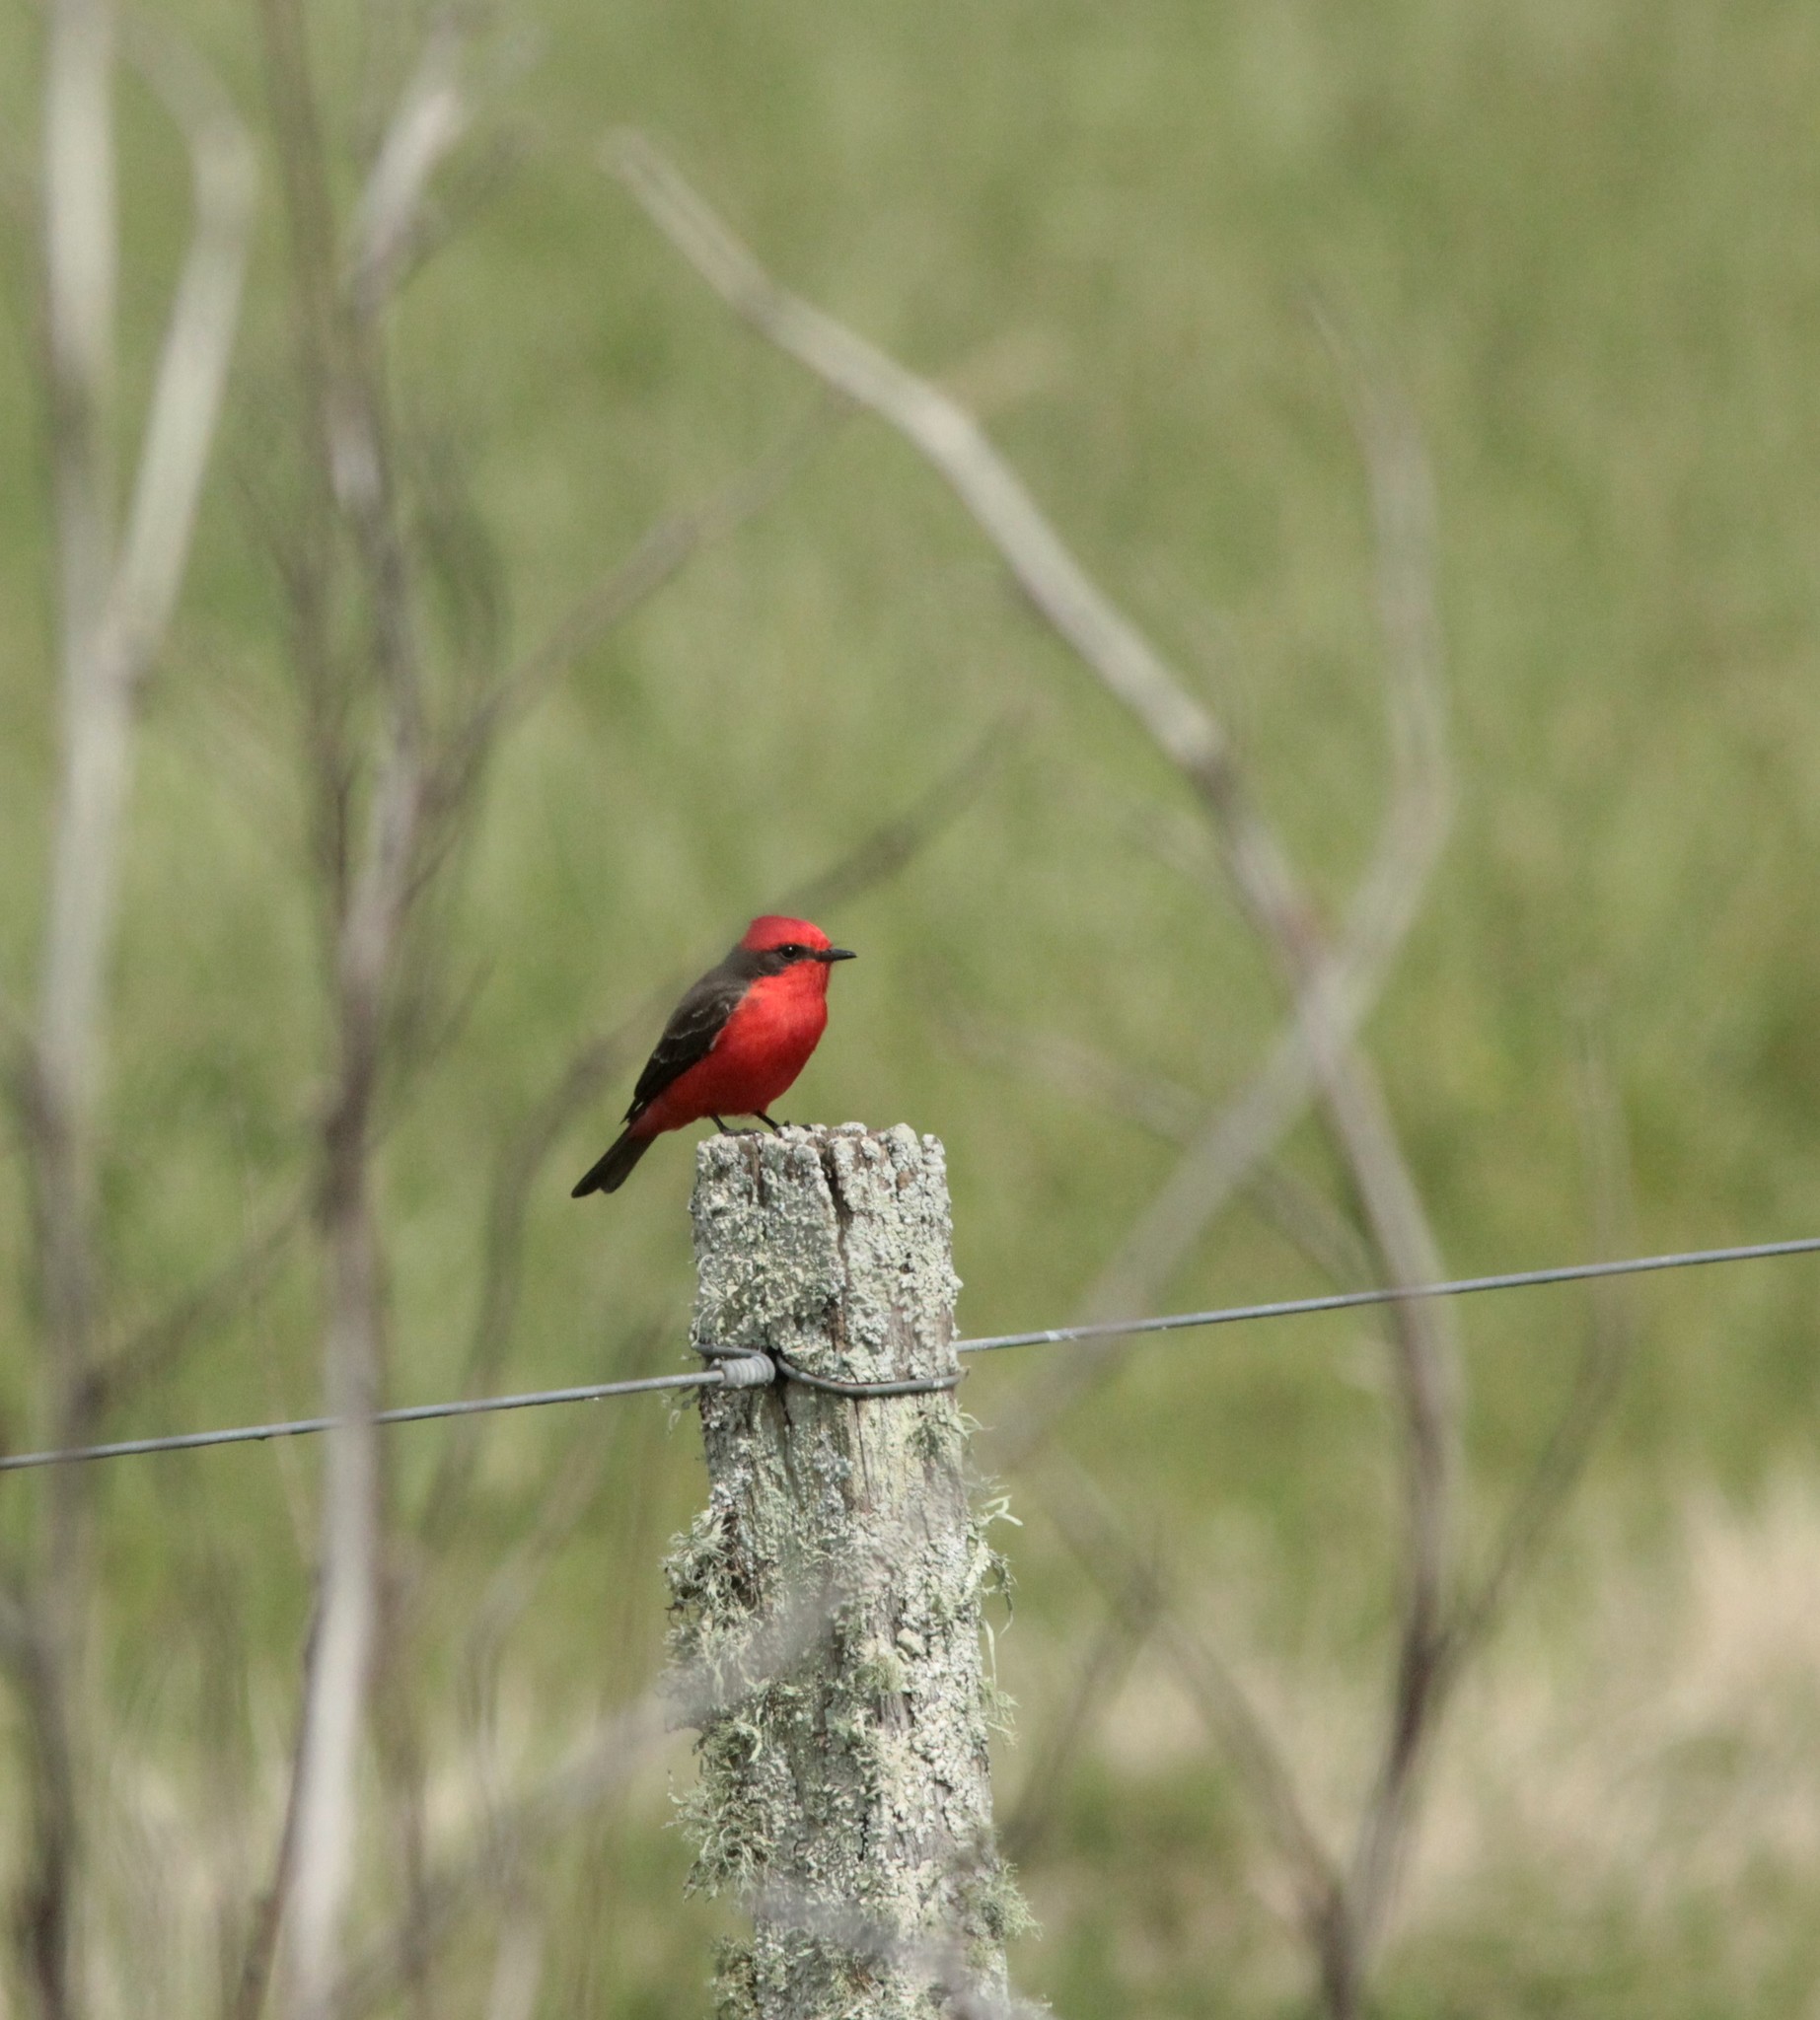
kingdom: Animalia
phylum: Chordata
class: Aves
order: Passeriformes
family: Tyrannidae
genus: Pyrocephalus
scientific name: Pyrocephalus rubinus
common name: Vermilion flycatcher
